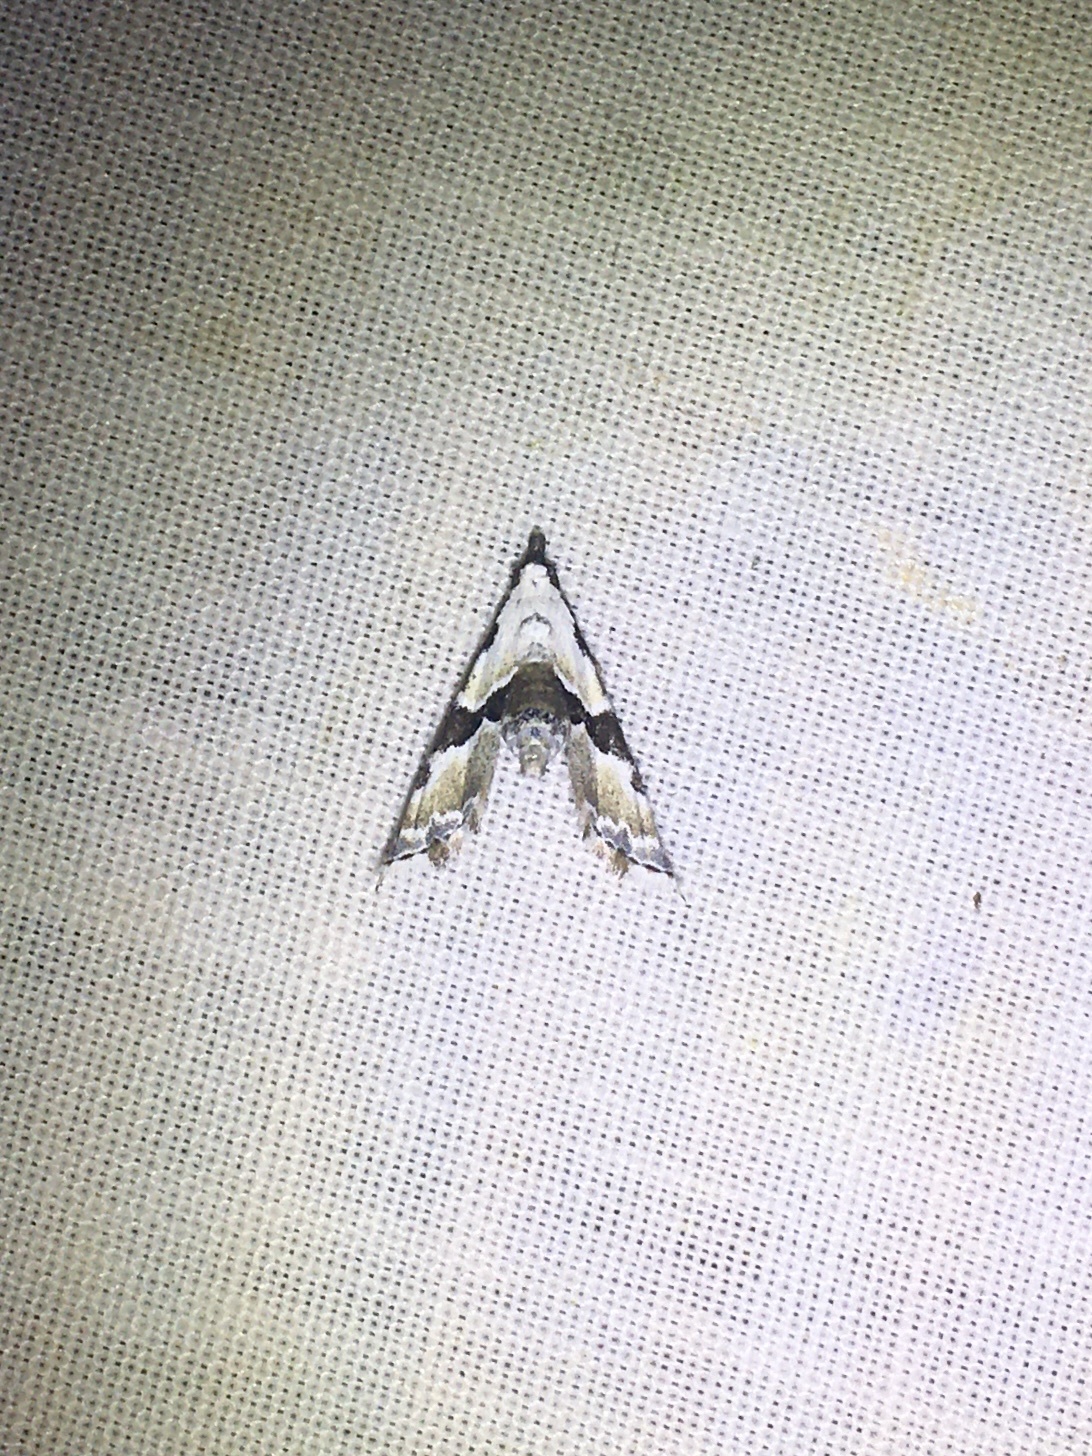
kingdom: Animalia
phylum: Arthropoda
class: Insecta
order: Lepidoptera
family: Noctuidae
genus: Nigetia
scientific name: Nigetia formosalis
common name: Thin-winged owlet
